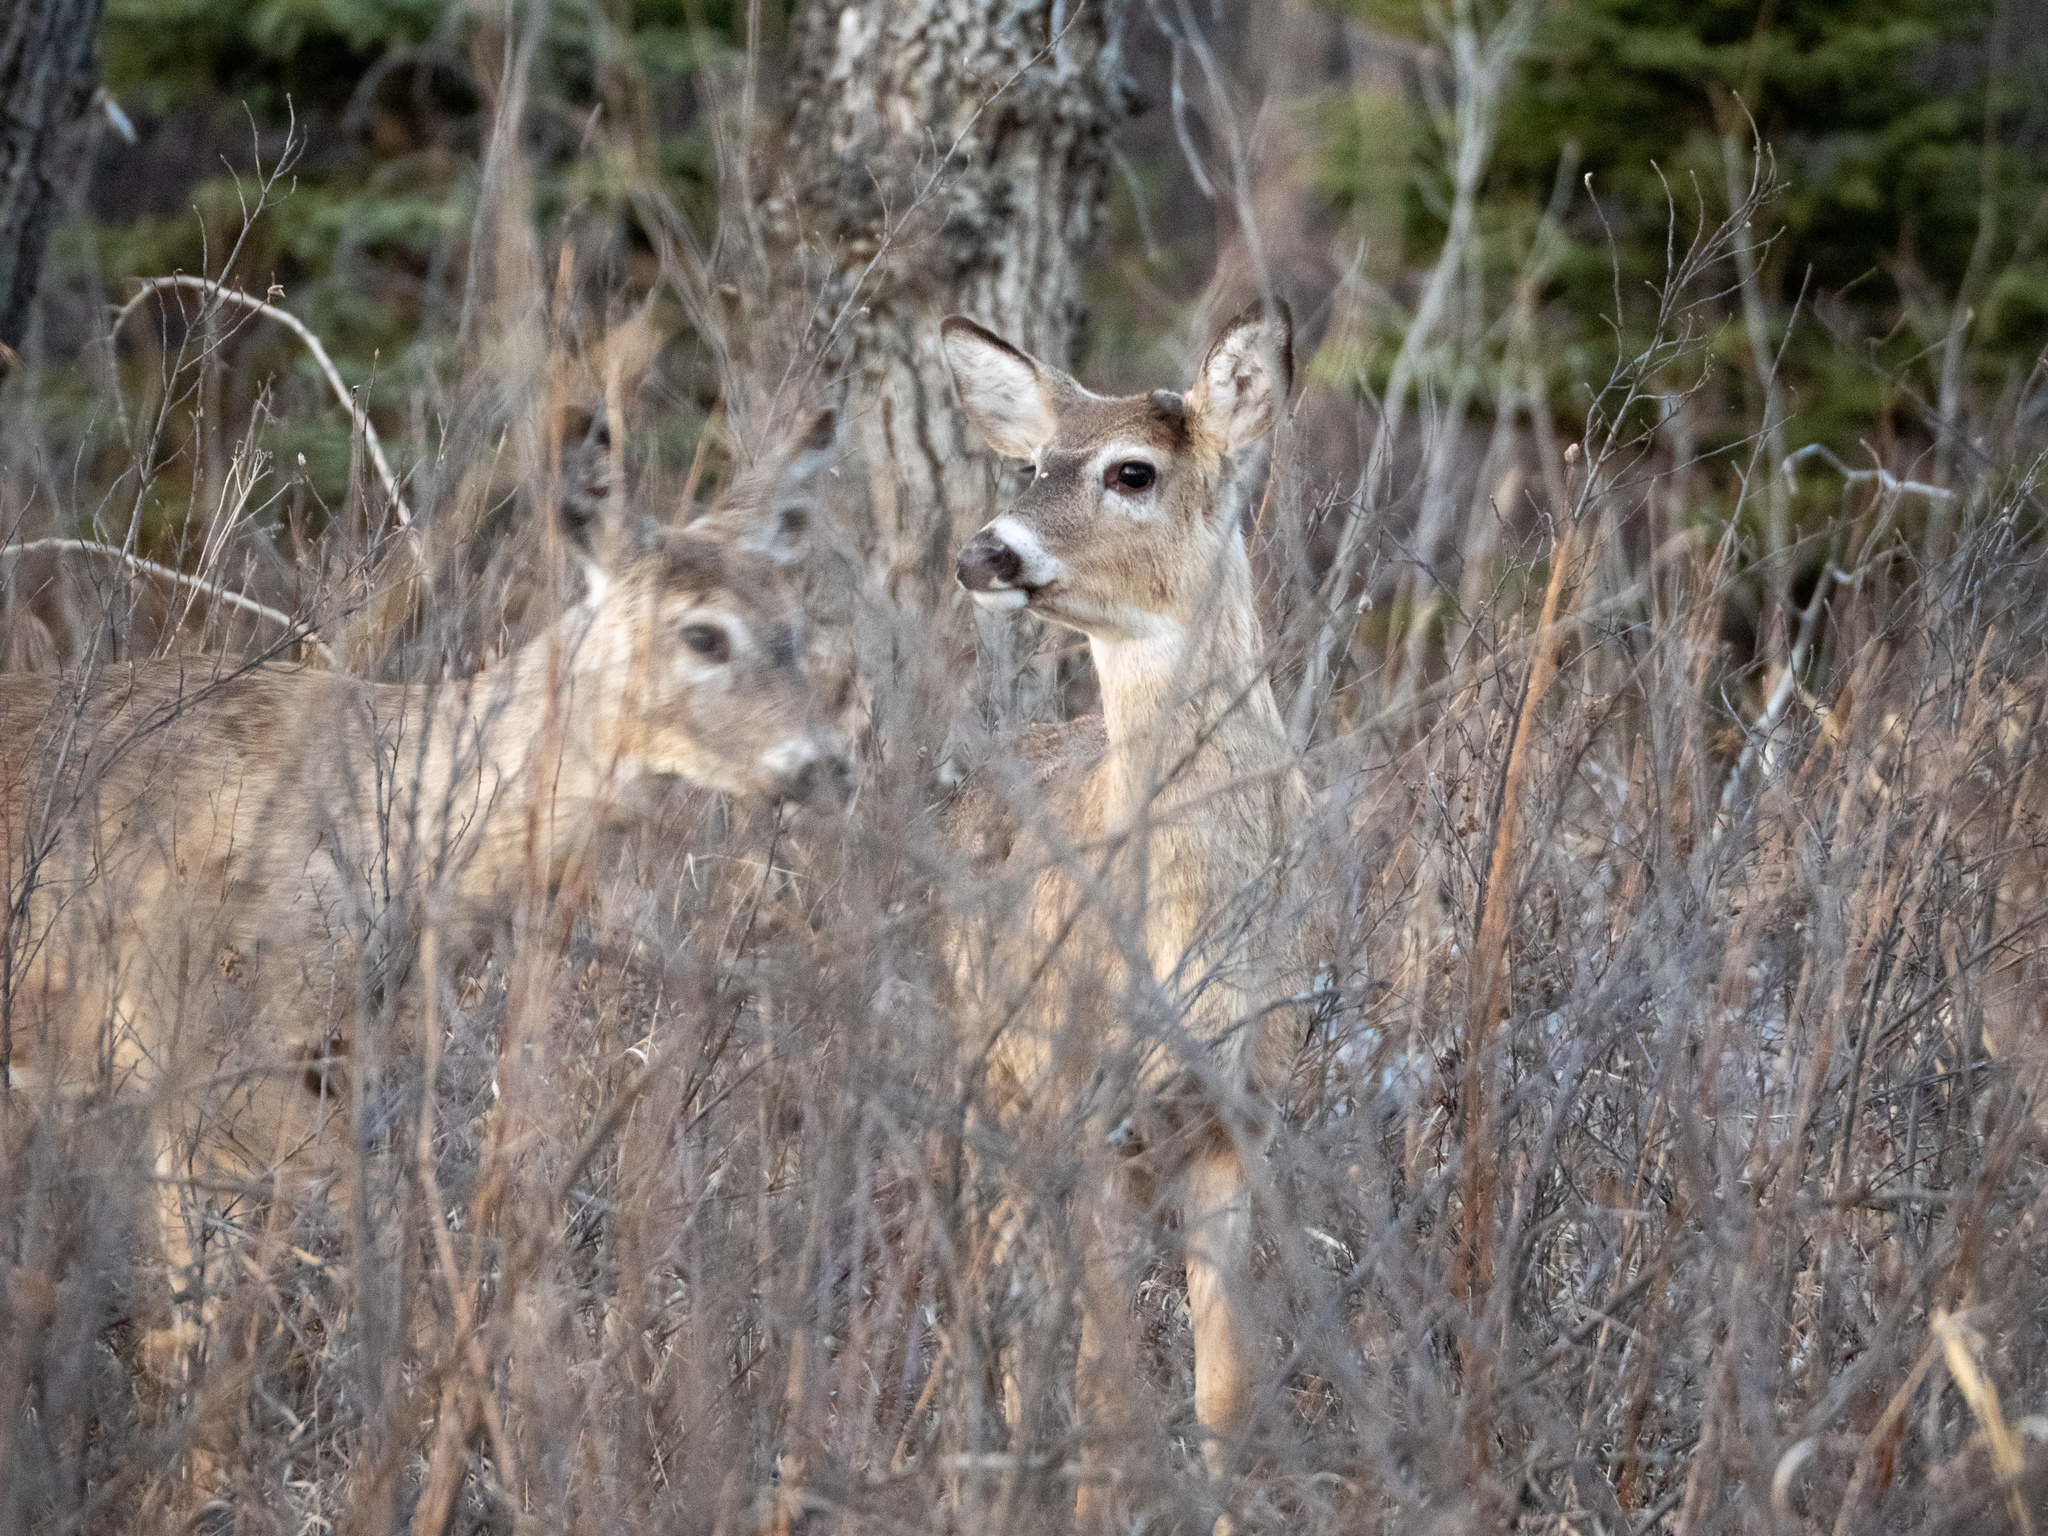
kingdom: Animalia
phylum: Chordata
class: Mammalia
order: Artiodactyla
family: Cervidae
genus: Odocoileus
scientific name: Odocoileus virginianus
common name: White-tailed deer
